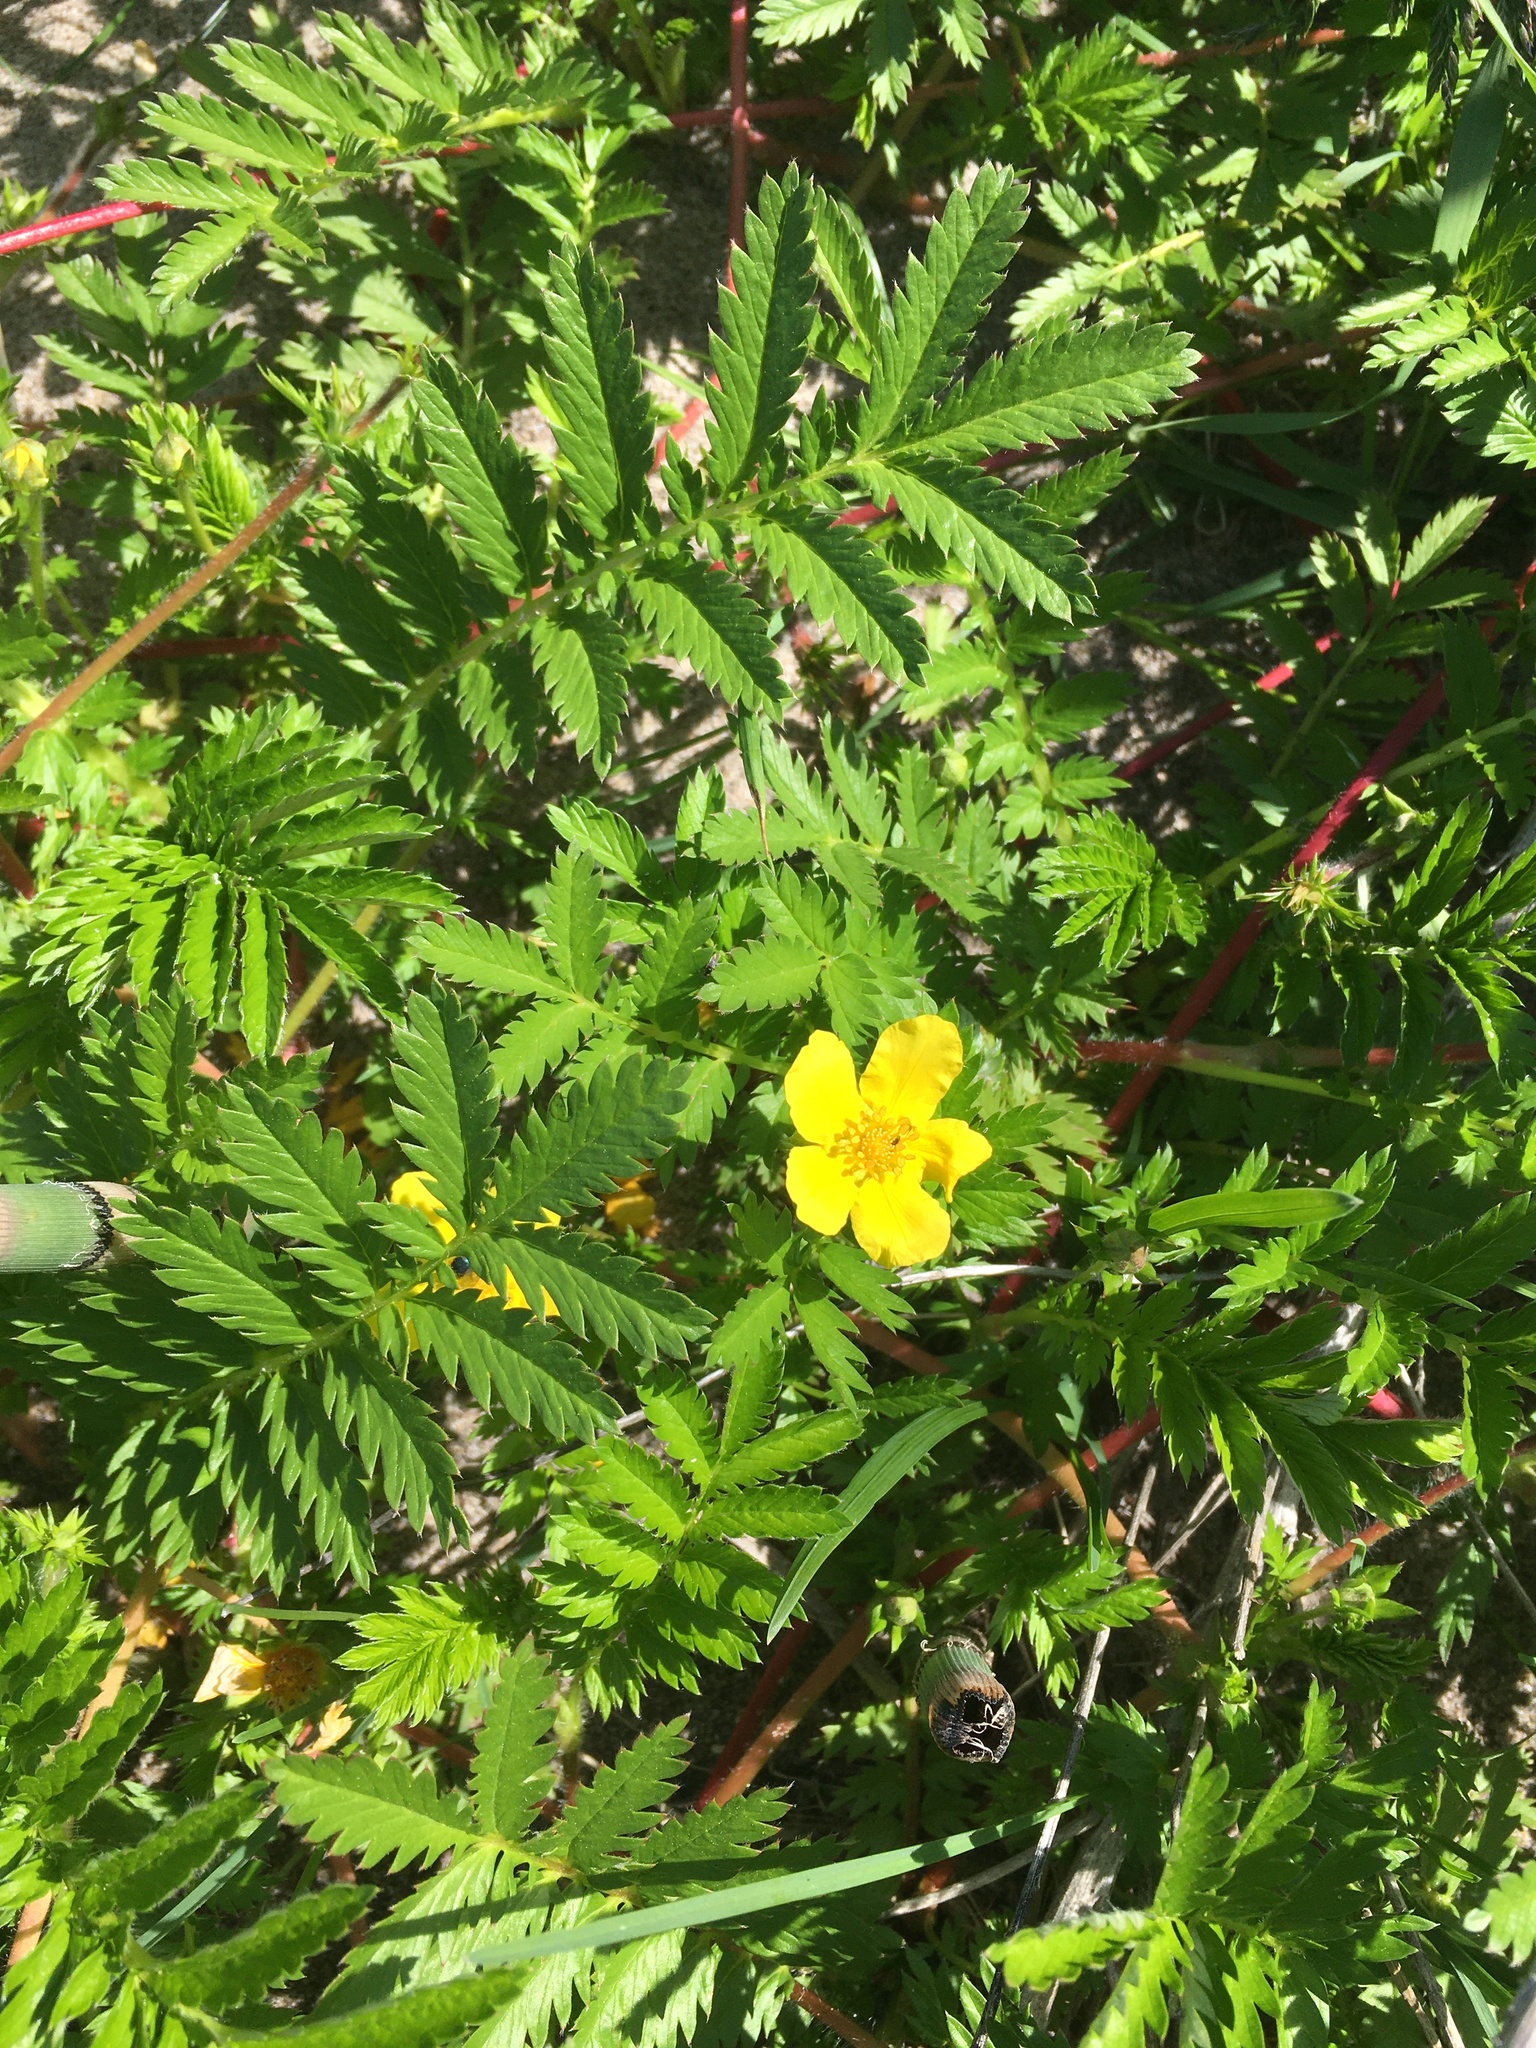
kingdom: Plantae
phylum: Tracheophyta
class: Magnoliopsida
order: Rosales
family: Rosaceae
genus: Argentina
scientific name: Argentina anserina
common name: Common silverweed
